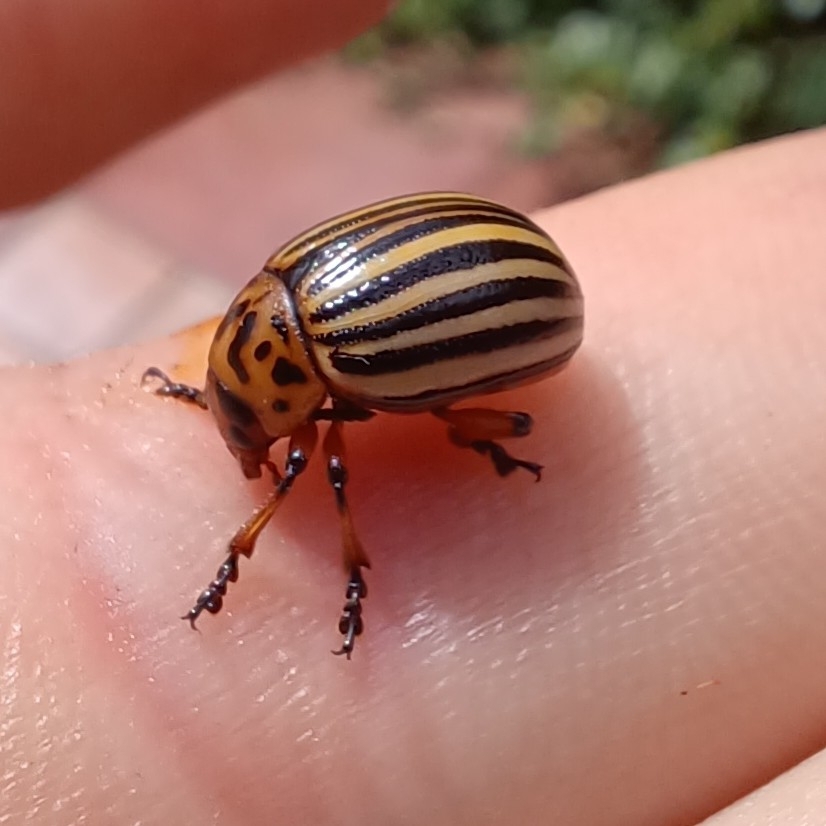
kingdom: Animalia
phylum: Arthropoda
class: Insecta
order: Coleoptera
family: Chrysomelidae
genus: Leptinotarsa
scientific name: Leptinotarsa decemlineata
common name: Colorado potato beetle
